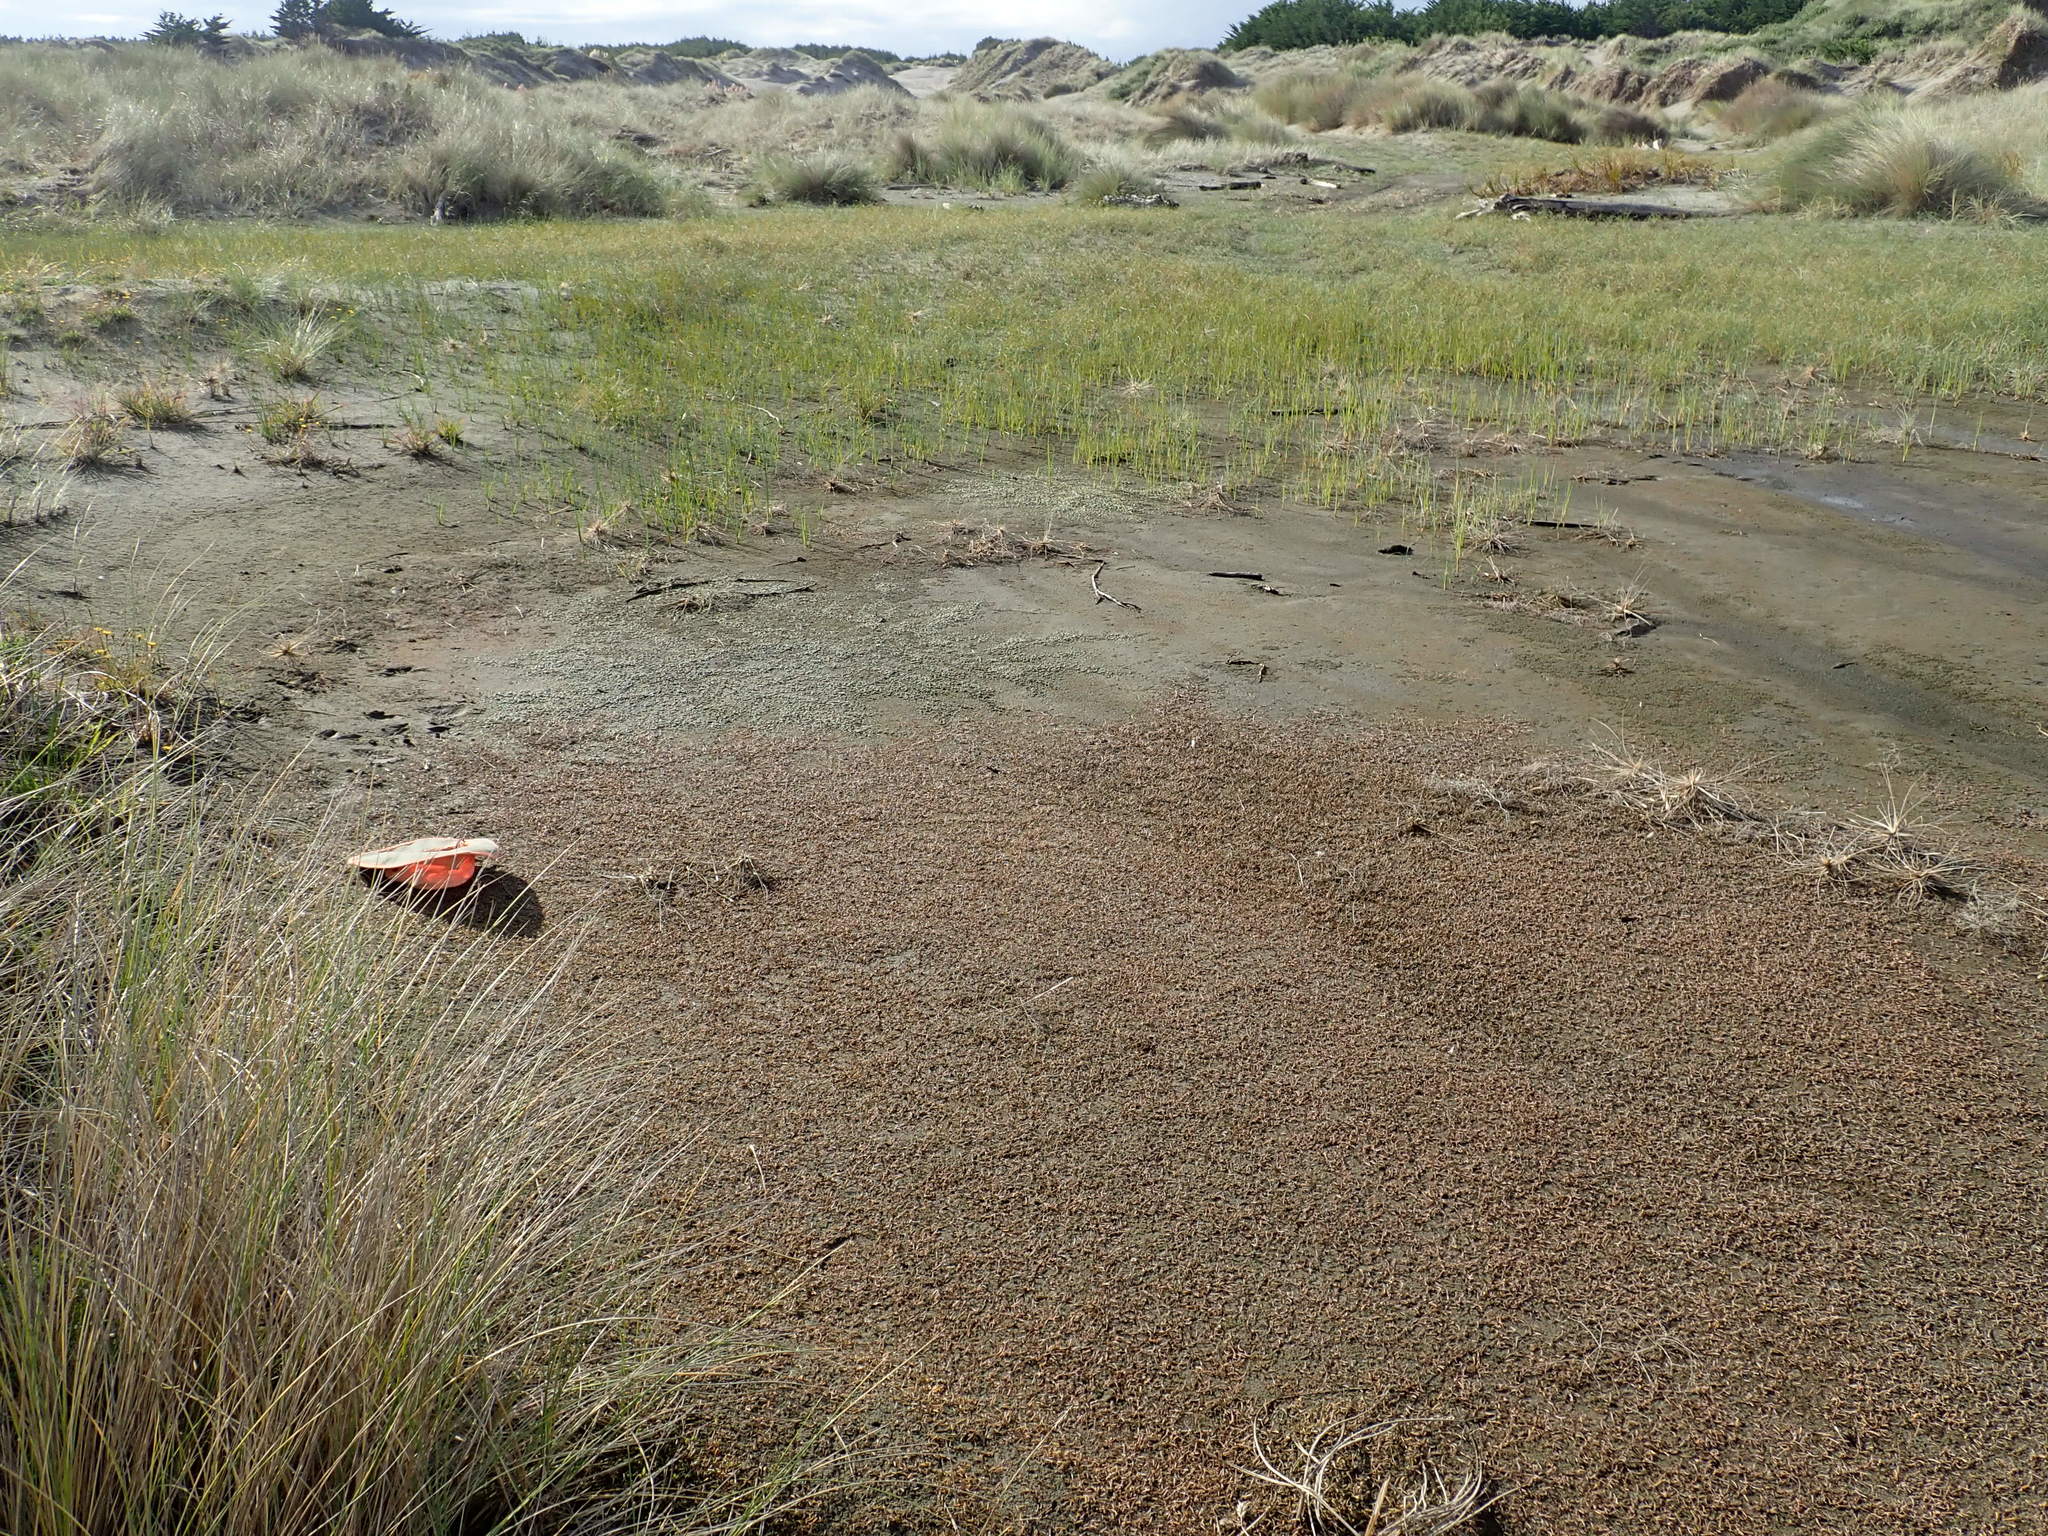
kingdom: Plantae
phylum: Tracheophyta
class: Liliopsida
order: Poales
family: Cyperaceae
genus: Carex
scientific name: Carex pumila
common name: Dwarf sedge
